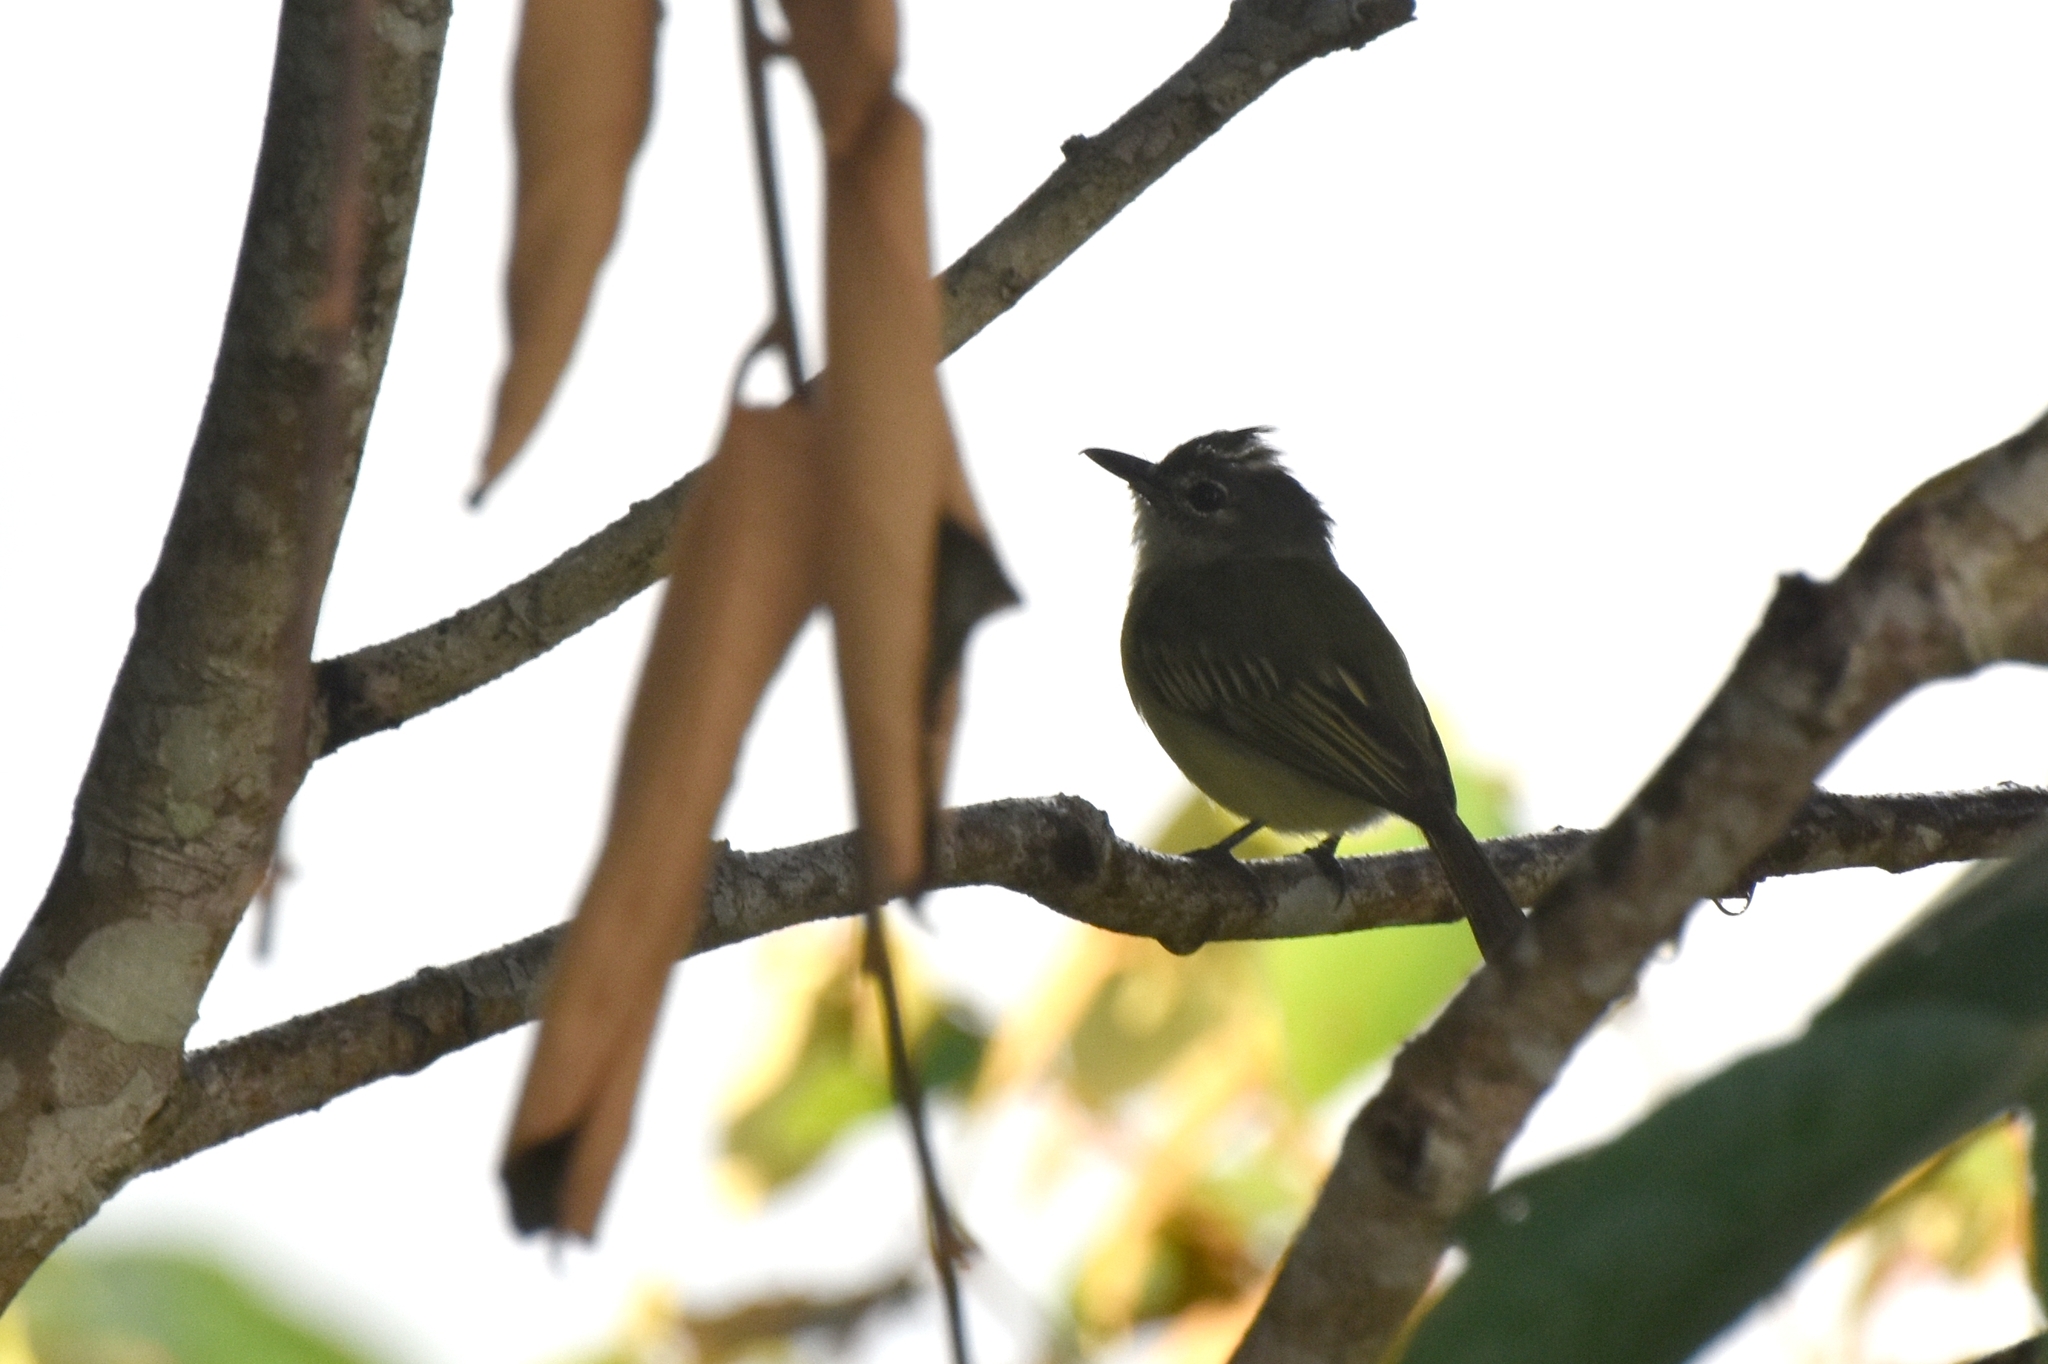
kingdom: Animalia
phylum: Chordata
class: Aves
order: Passeriformes
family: Tyrannidae
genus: Tolmomyias
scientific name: Tolmomyias assimilis
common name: Yellow-margined flycatcher
